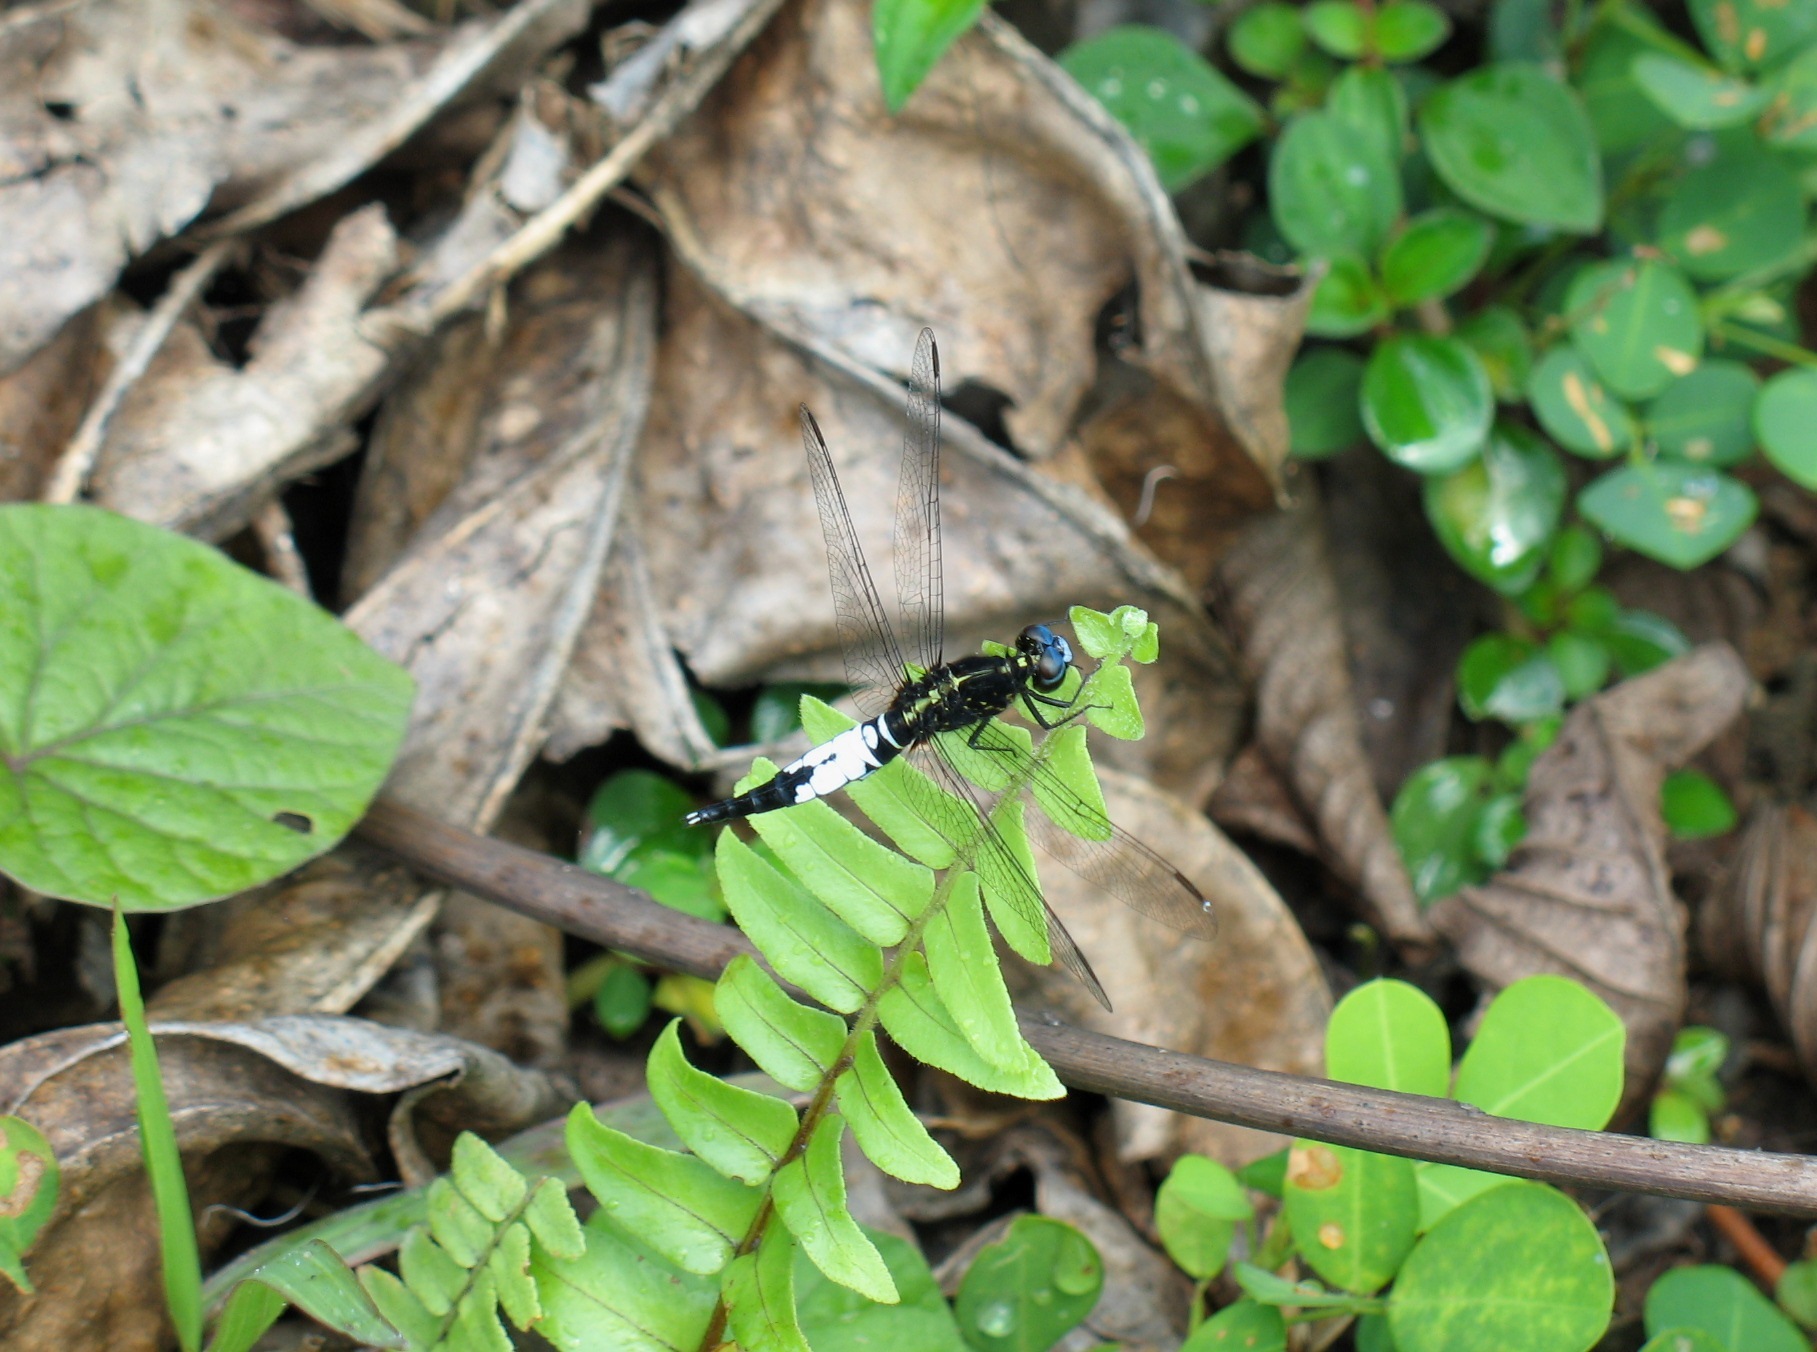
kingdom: Animalia
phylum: Arthropoda
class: Insecta
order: Odonata
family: Libellulidae
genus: Acisoma
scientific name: Acisoma trifidum
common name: Ivory pintail
